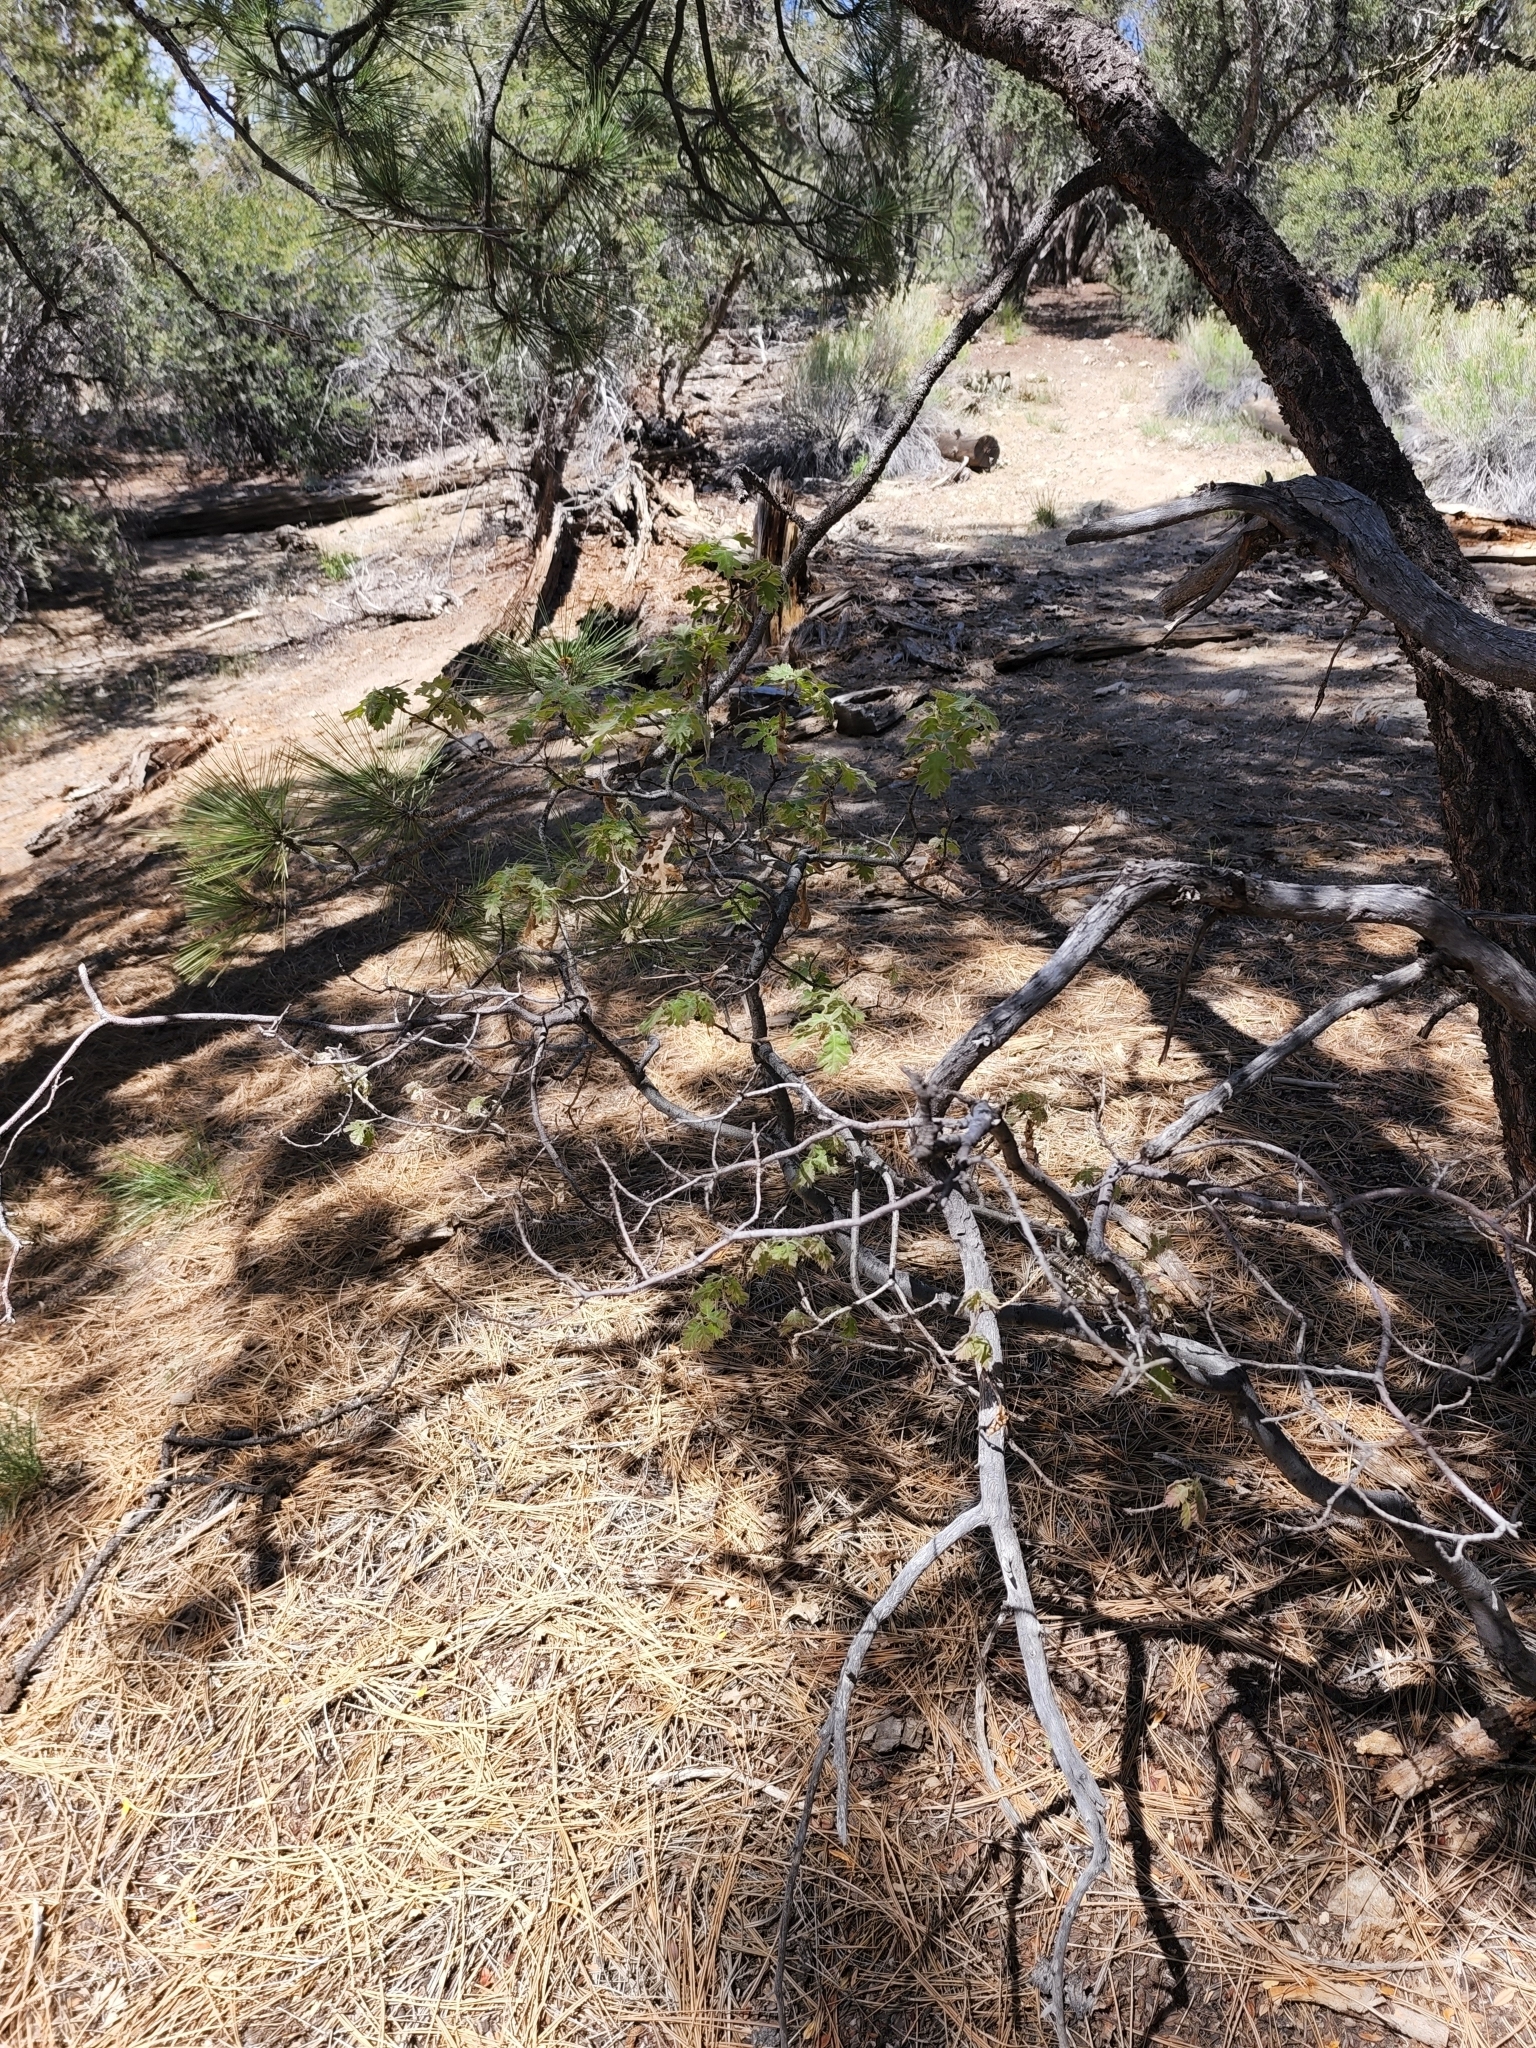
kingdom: Plantae
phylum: Tracheophyta
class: Magnoliopsida
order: Fagales
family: Fagaceae
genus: Quercus
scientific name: Quercus kelloggii
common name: California black oak
